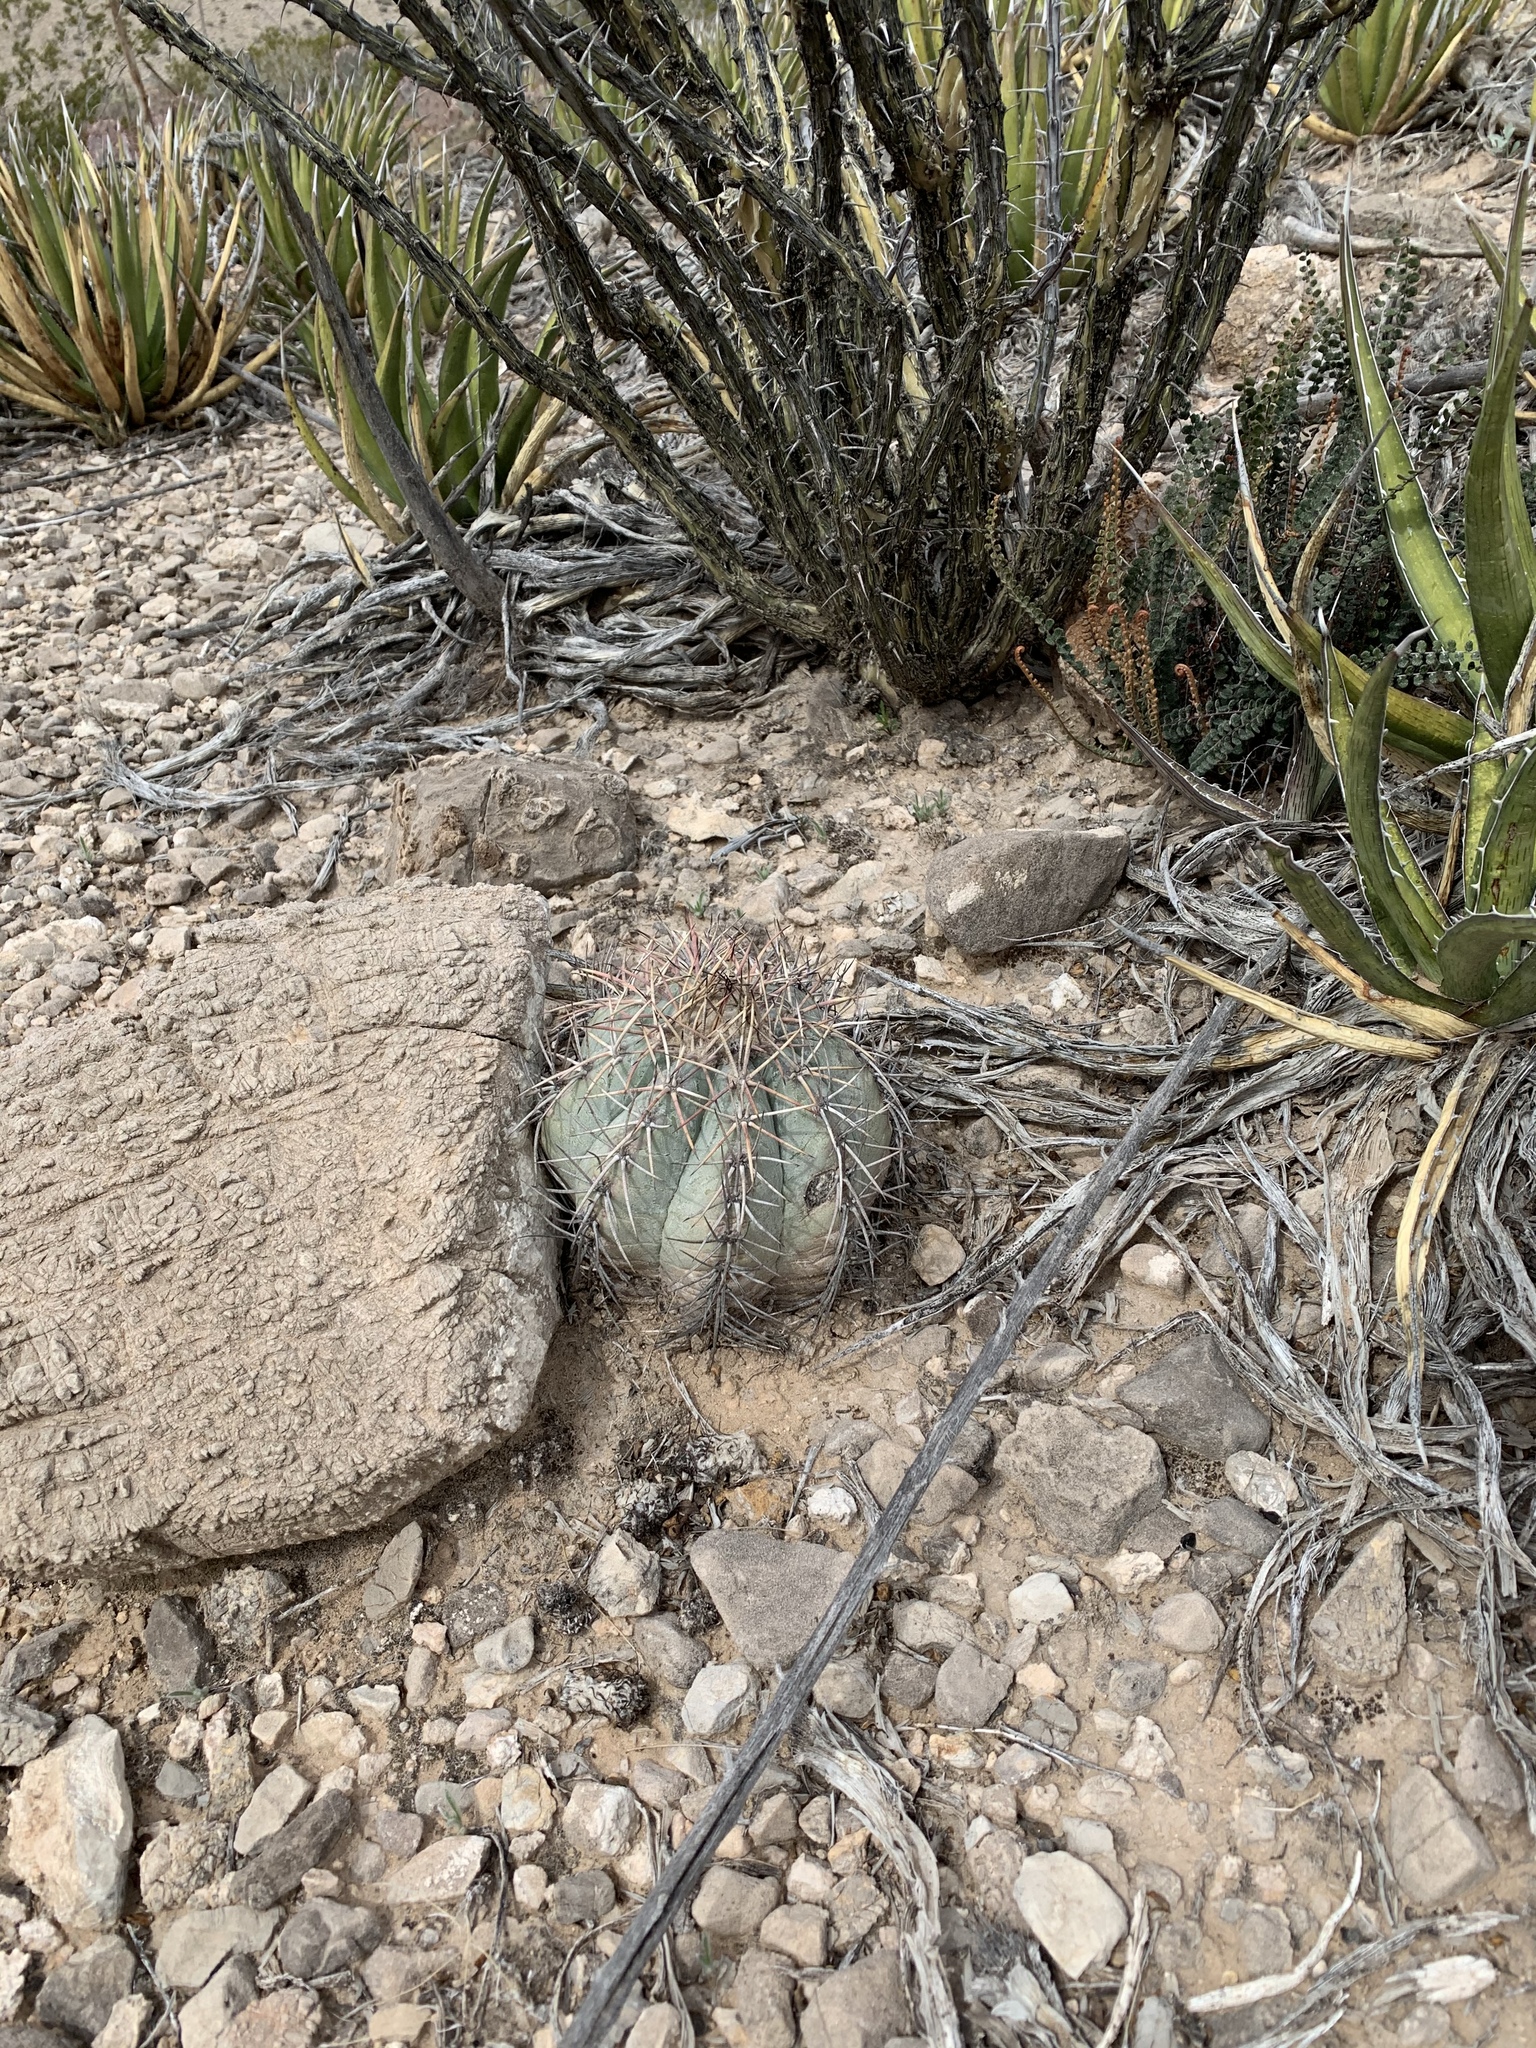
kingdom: Plantae
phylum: Tracheophyta
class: Magnoliopsida
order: Caryophyllales
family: Cactaceae
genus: Echinocactus
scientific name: Echinocactus horizonthalonius
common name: Devilshead
